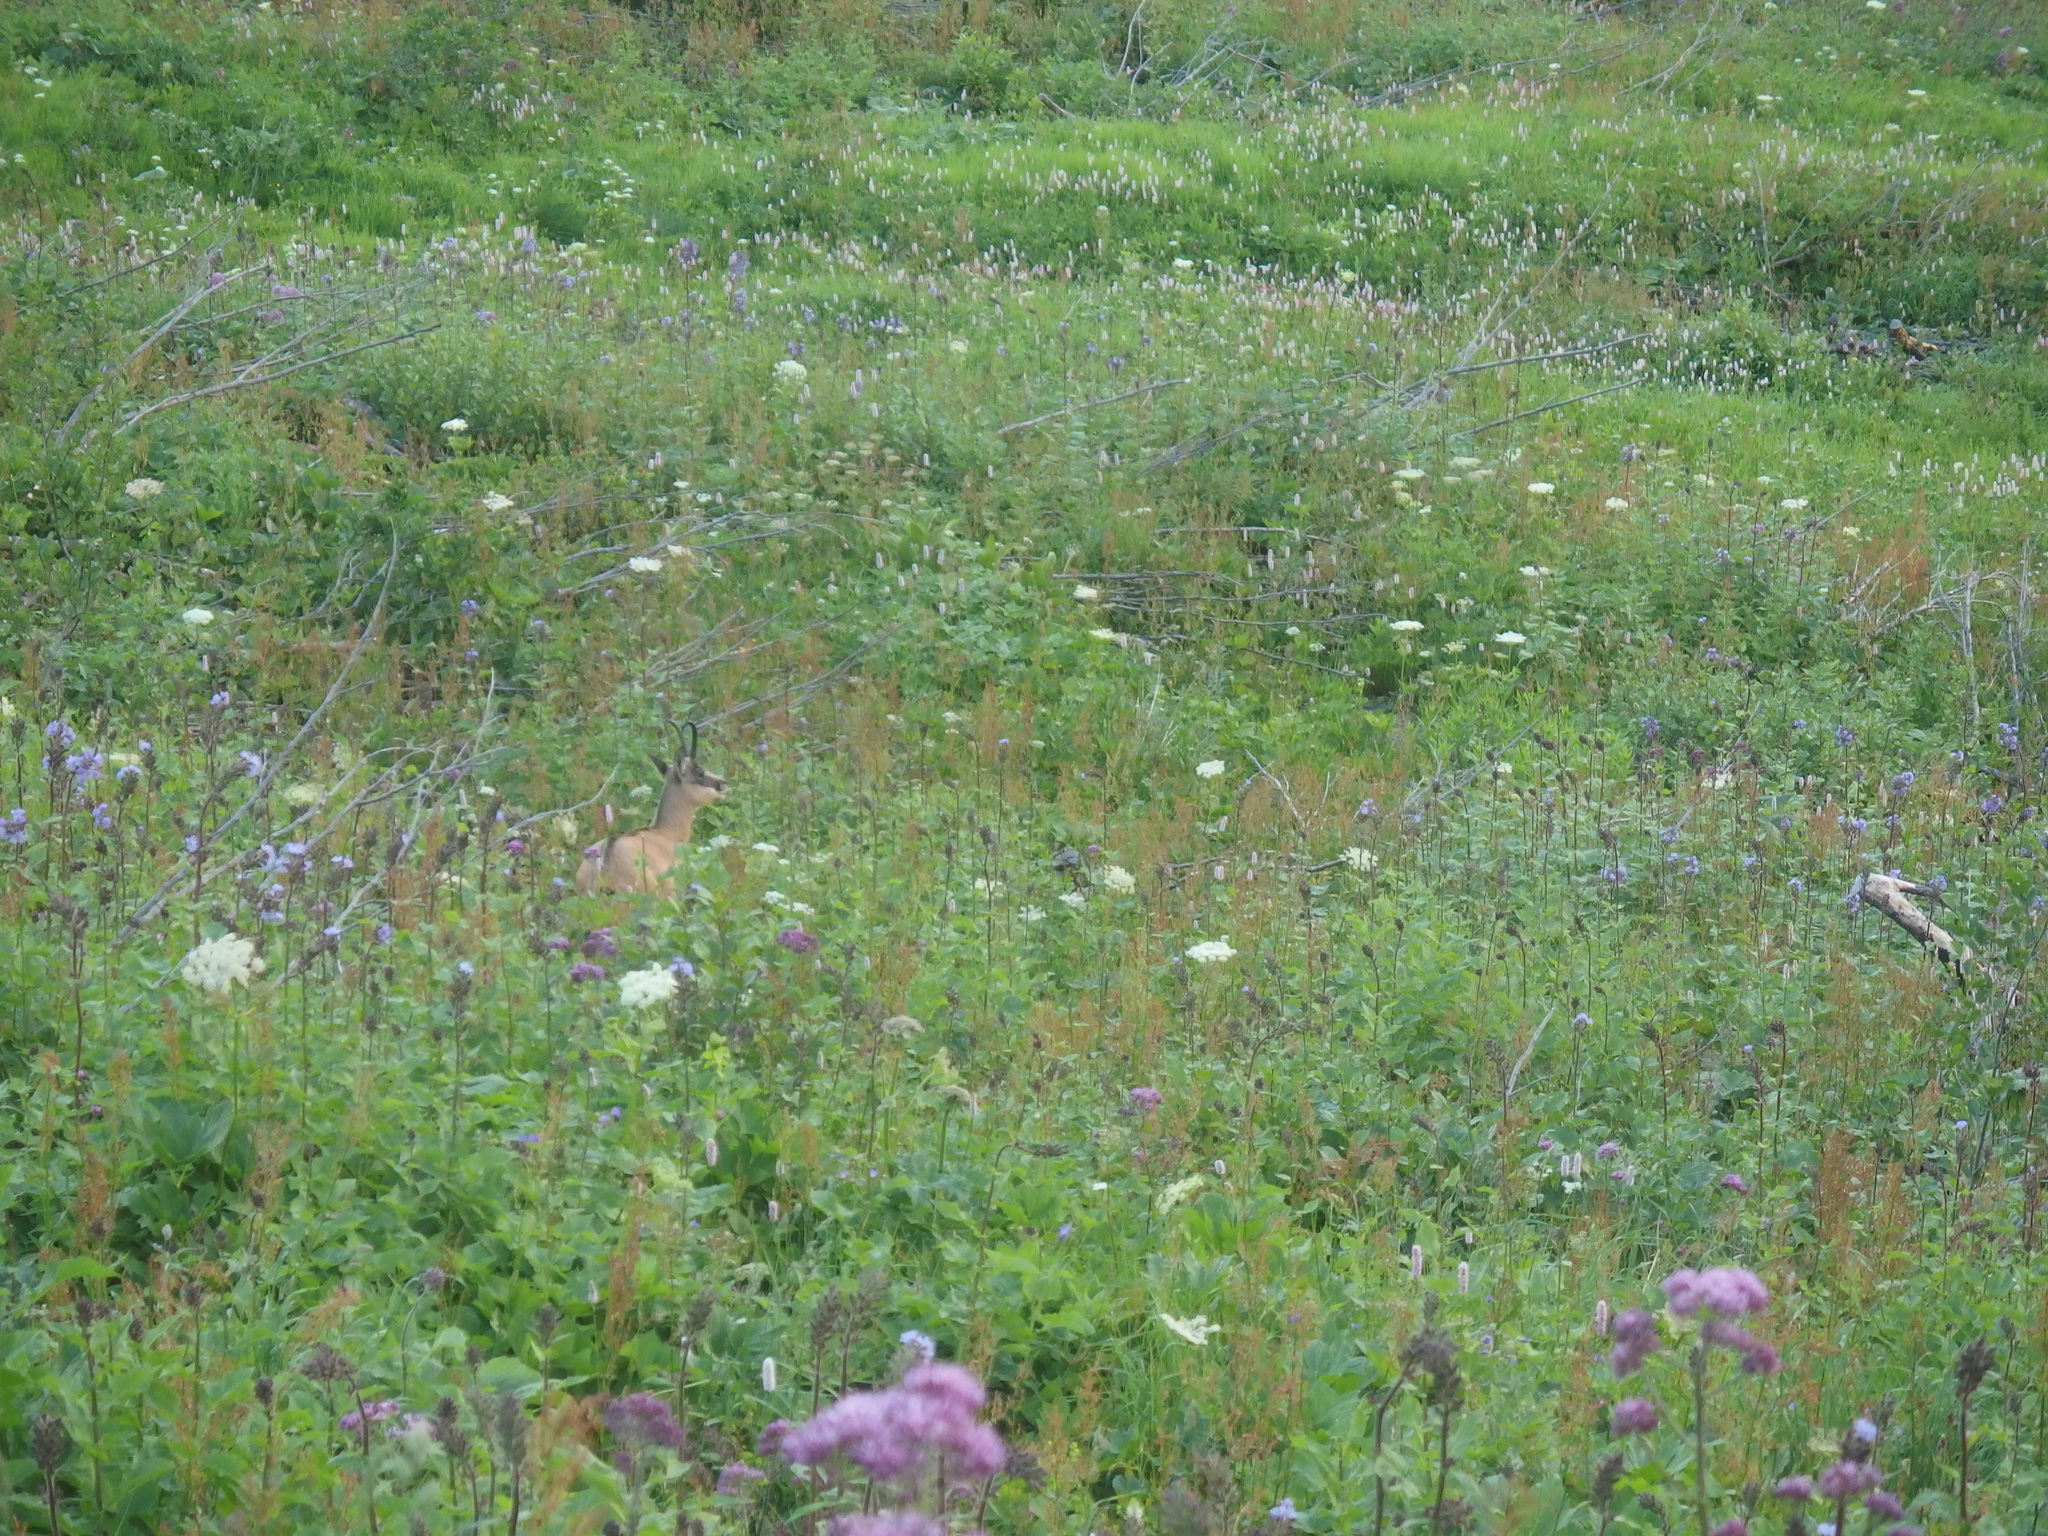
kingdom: Animalia
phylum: Chordata
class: Mammalia
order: Artiodactyla
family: Bovidae
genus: Rupicapra
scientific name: Rupicapra rupicapra
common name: Chamois
